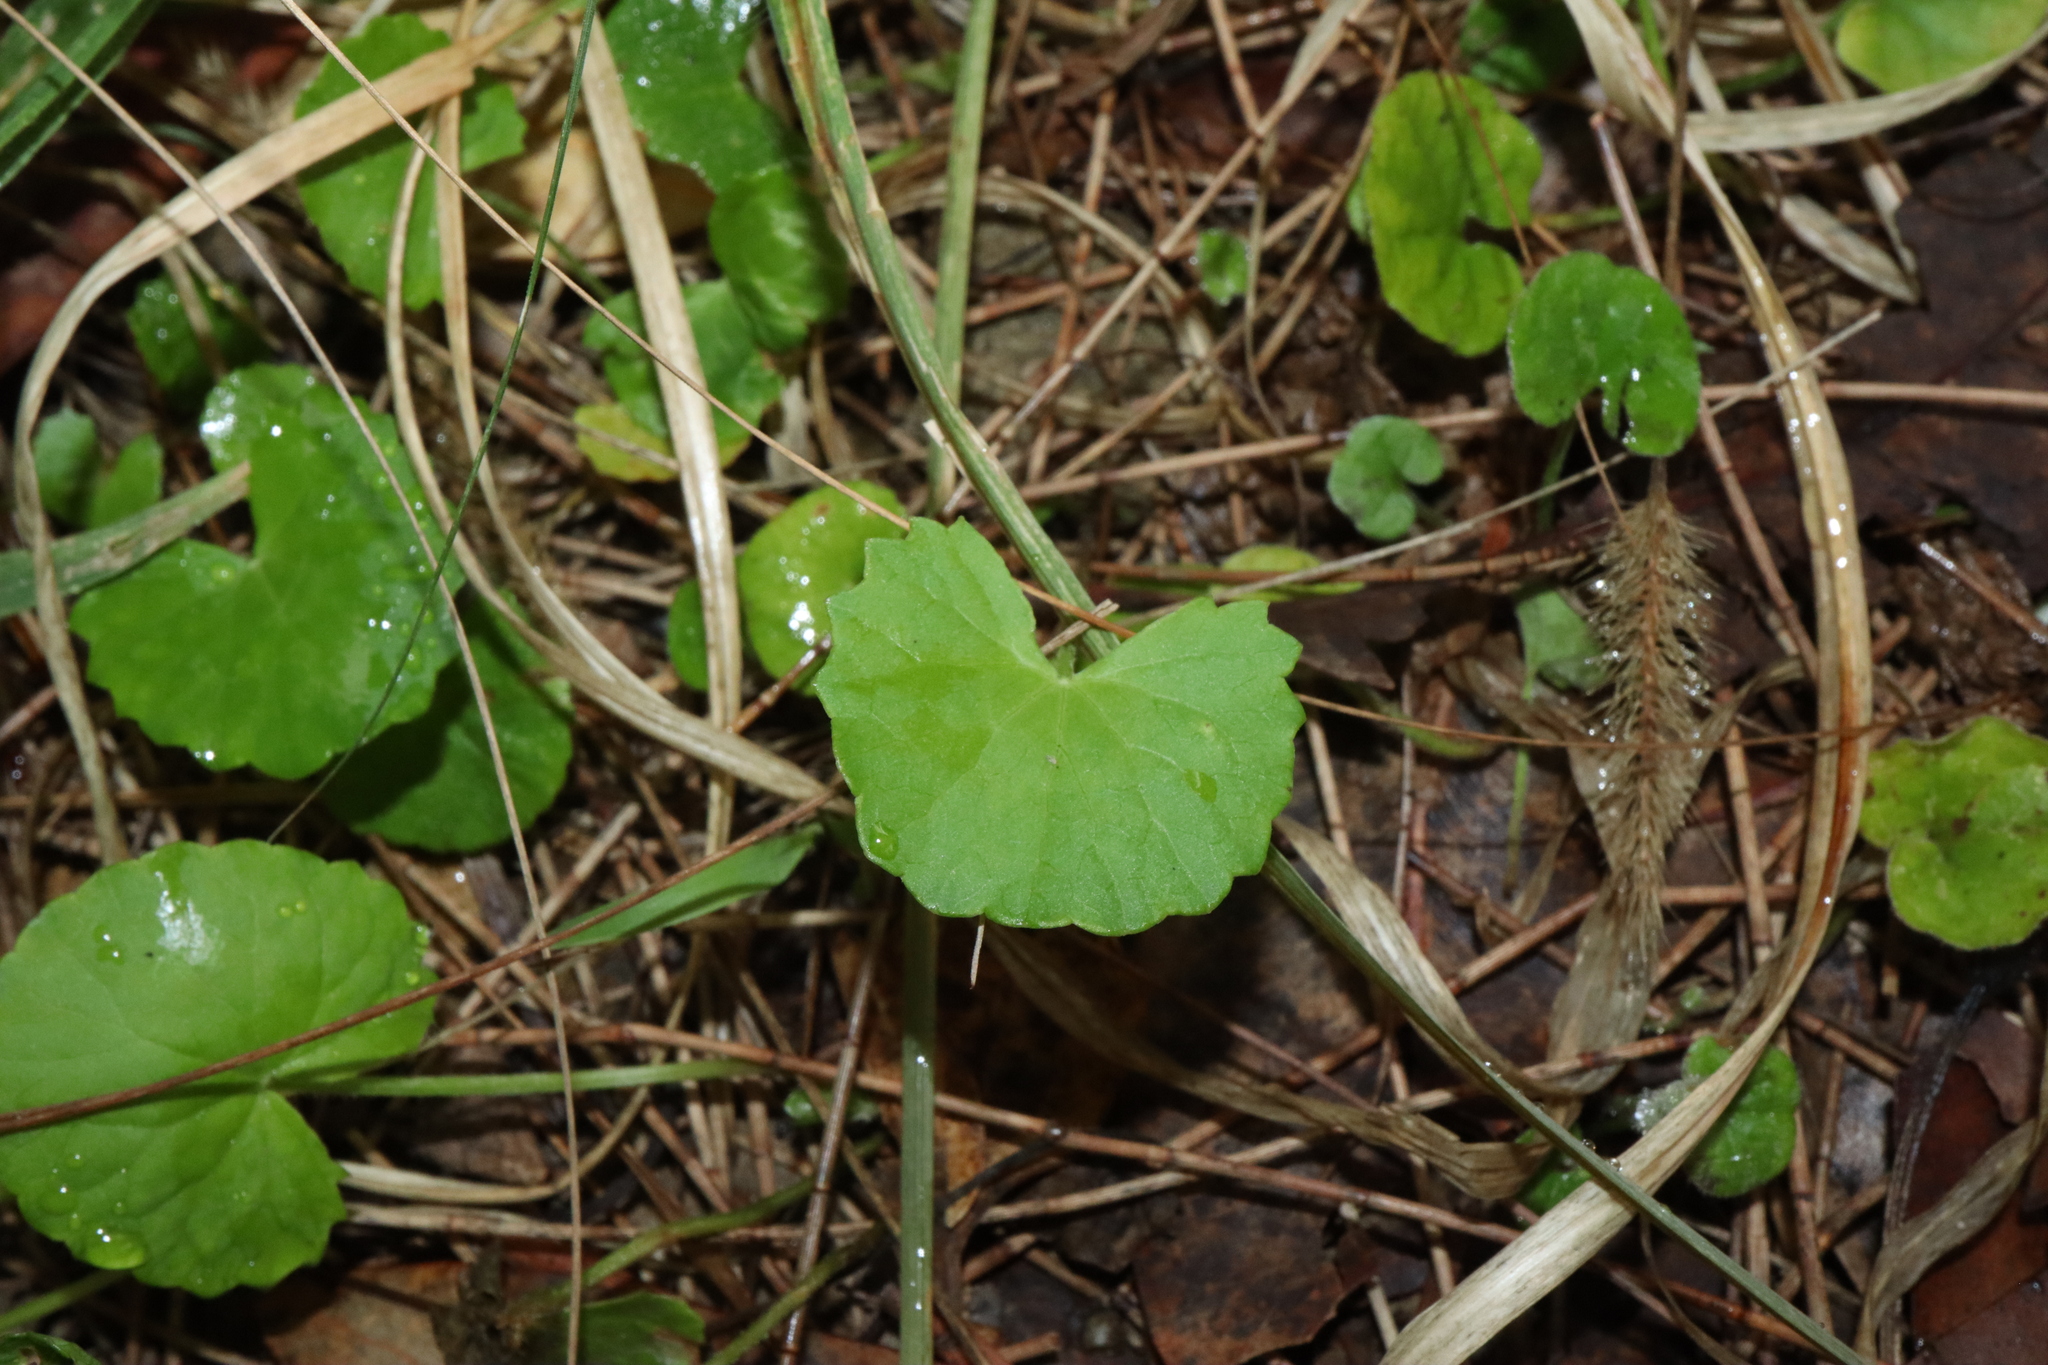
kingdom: Plantae
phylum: Tracheophyta
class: Magnoliopsida
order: Apiales
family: Apiaceae
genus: Centella
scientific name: Centella asiatica
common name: Spadeleaf
